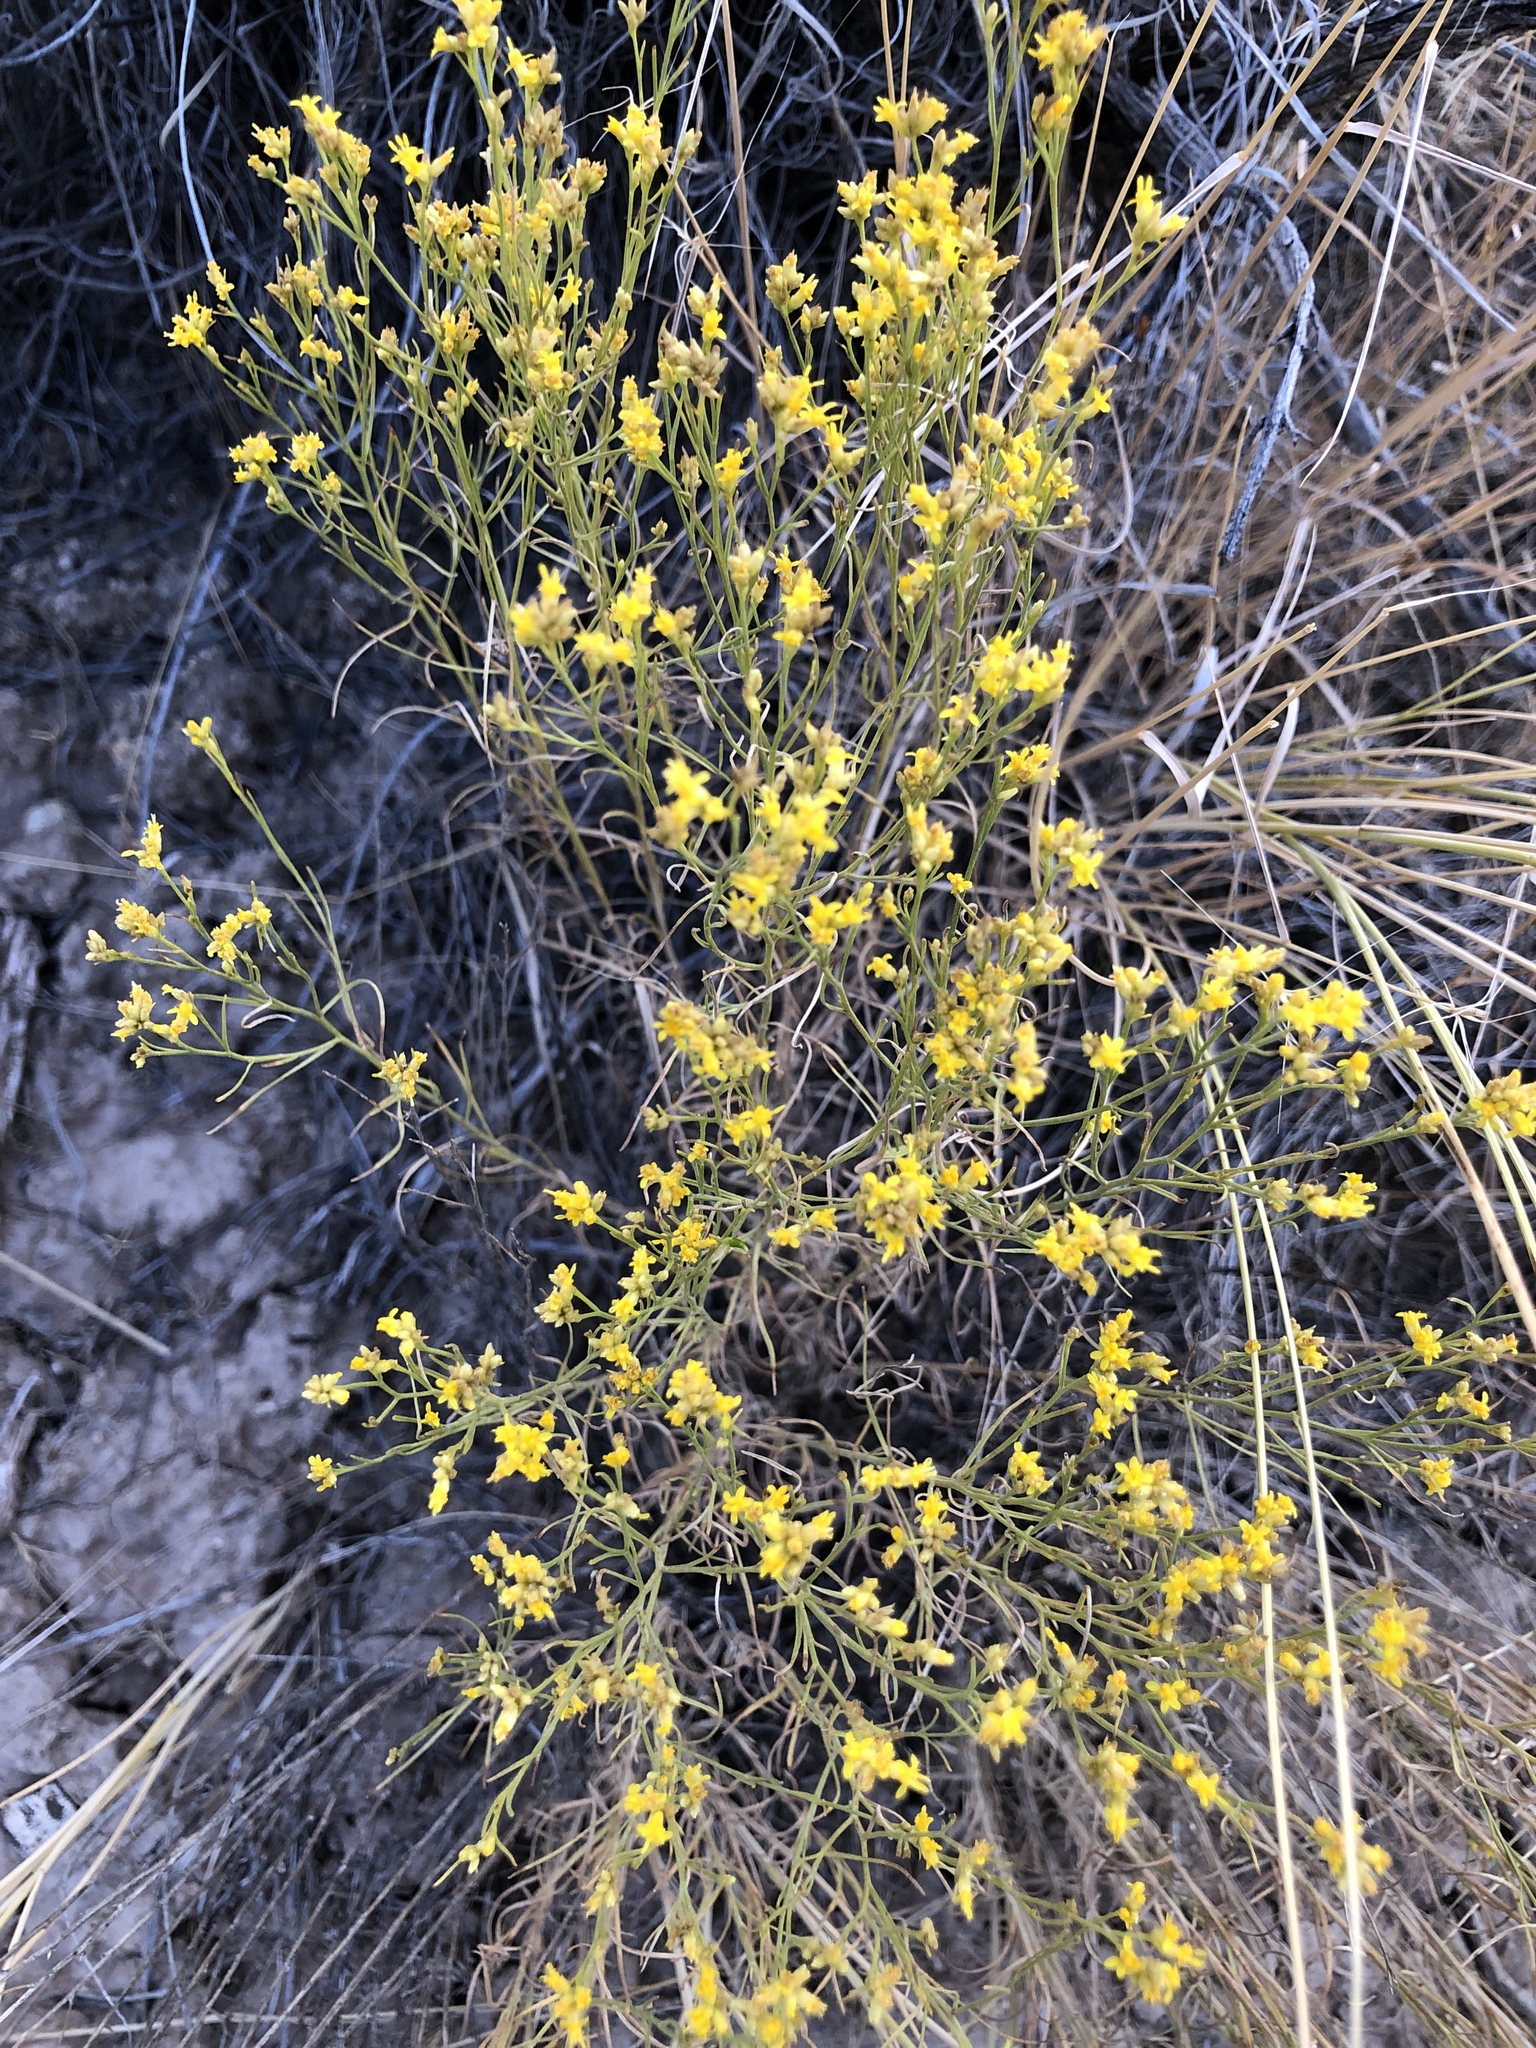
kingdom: Plantae
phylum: Tracheophyta
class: Magnoliopsida
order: Asterales
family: Asteraceae
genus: Ericameria
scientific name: Ericameria nauseosa
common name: Rubber rabbitbrush
